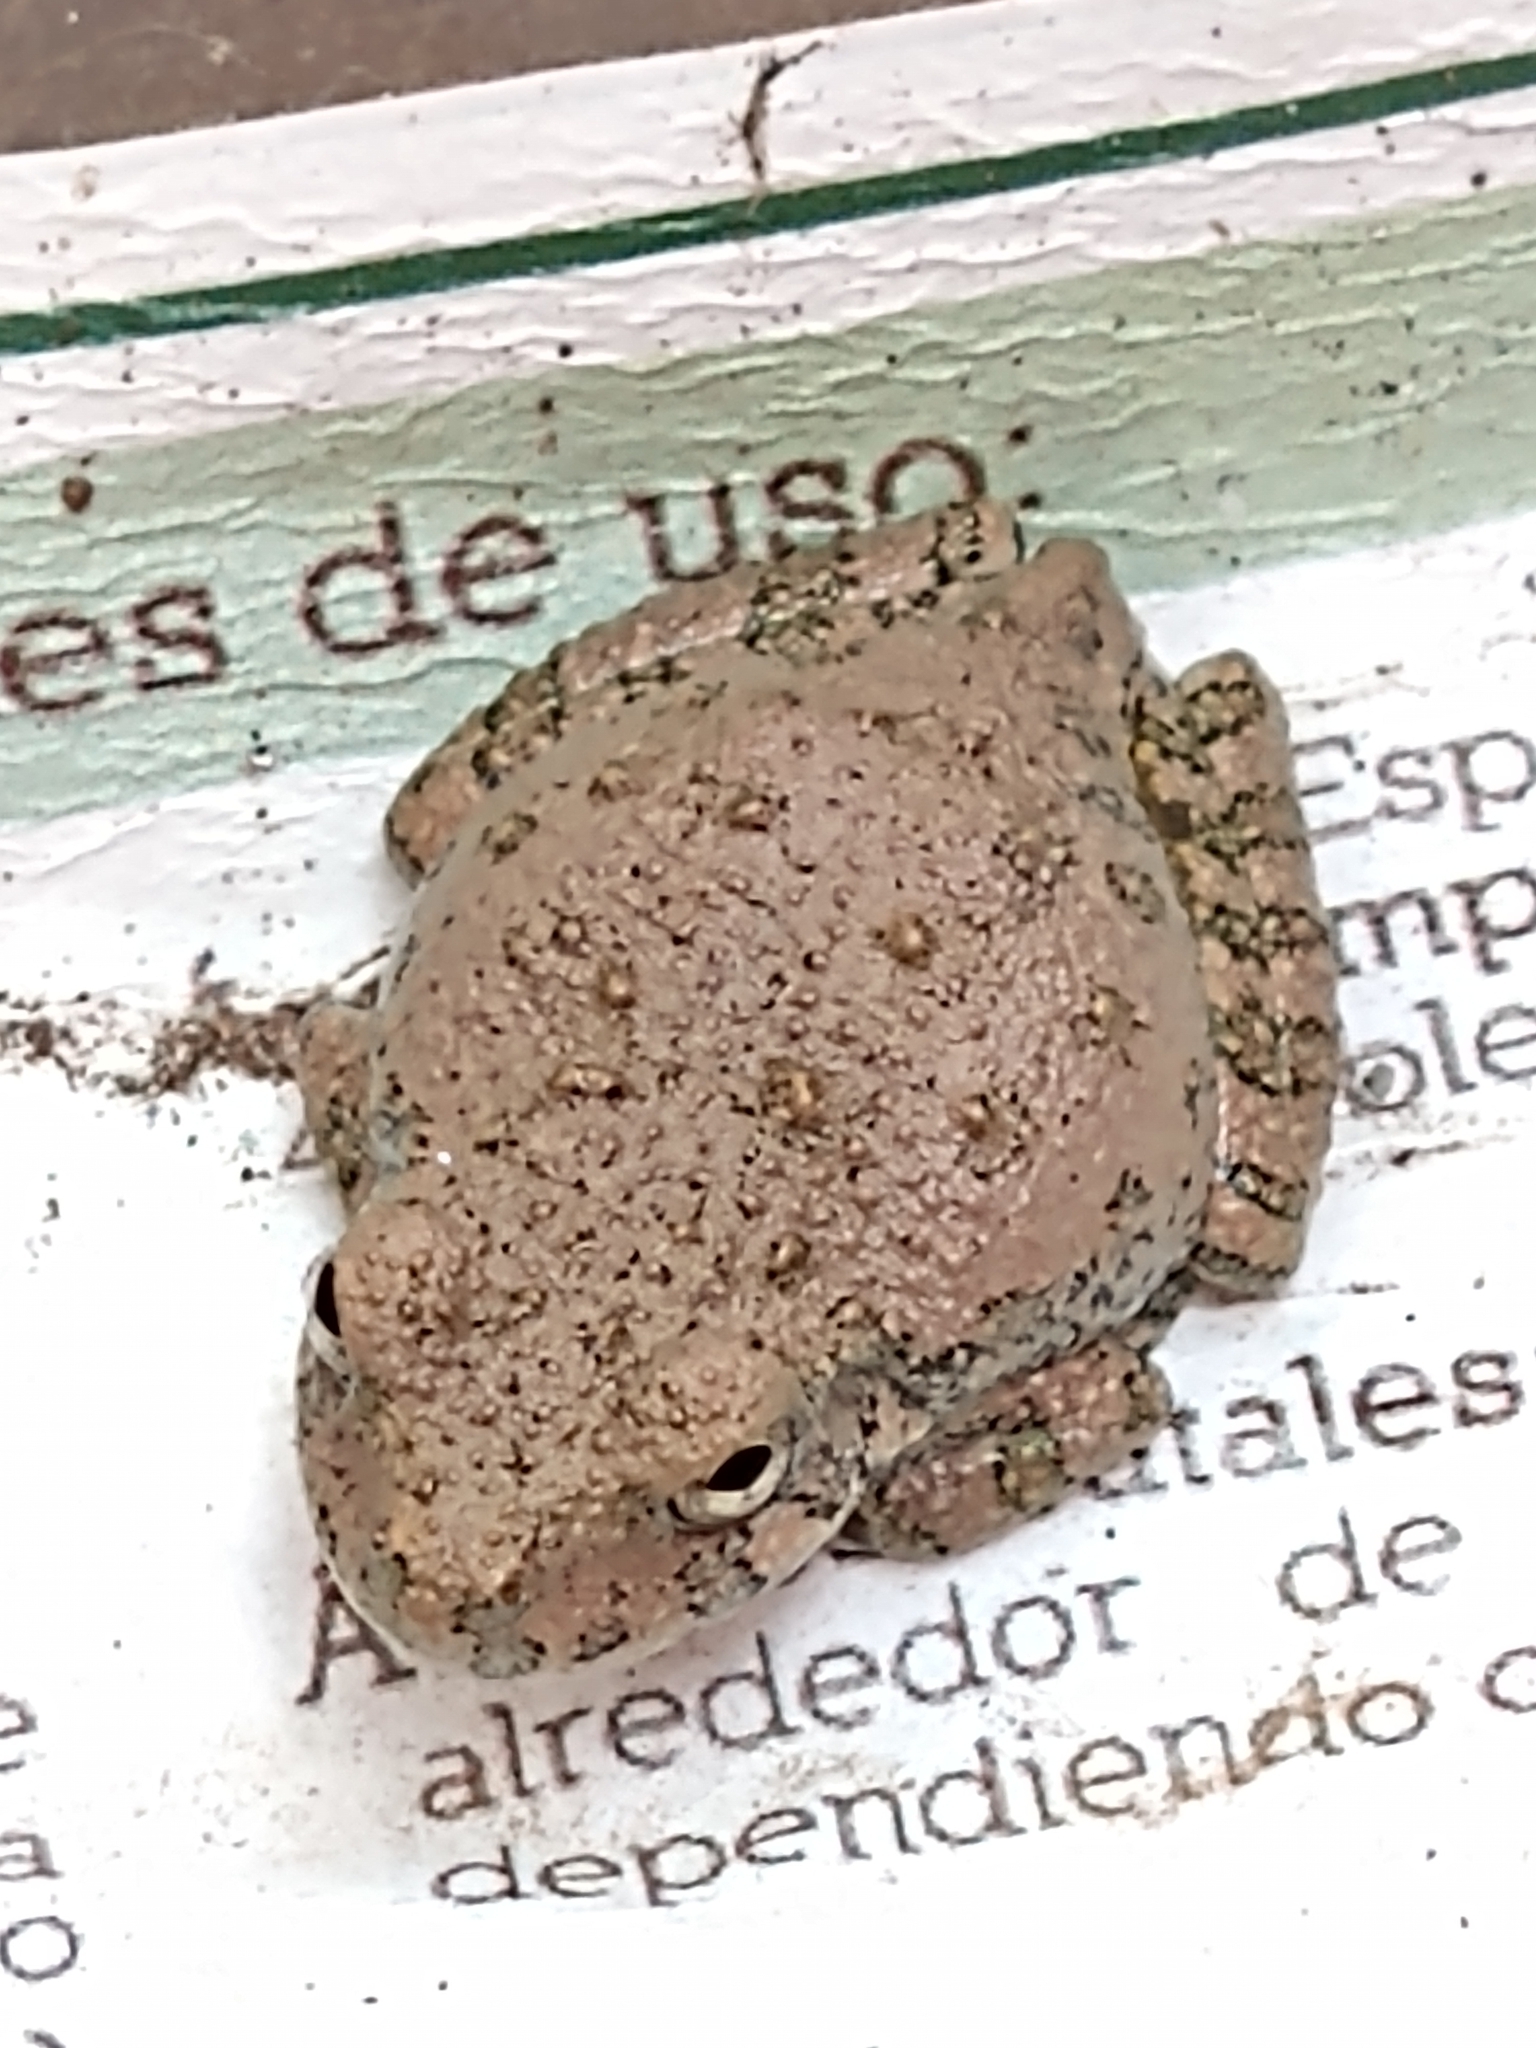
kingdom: Animalia
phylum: Chordata
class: Amphibia
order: Anura
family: Hylidae
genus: Dryophytes
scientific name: Dryophytes arenicolor
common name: Canyon treefrog
